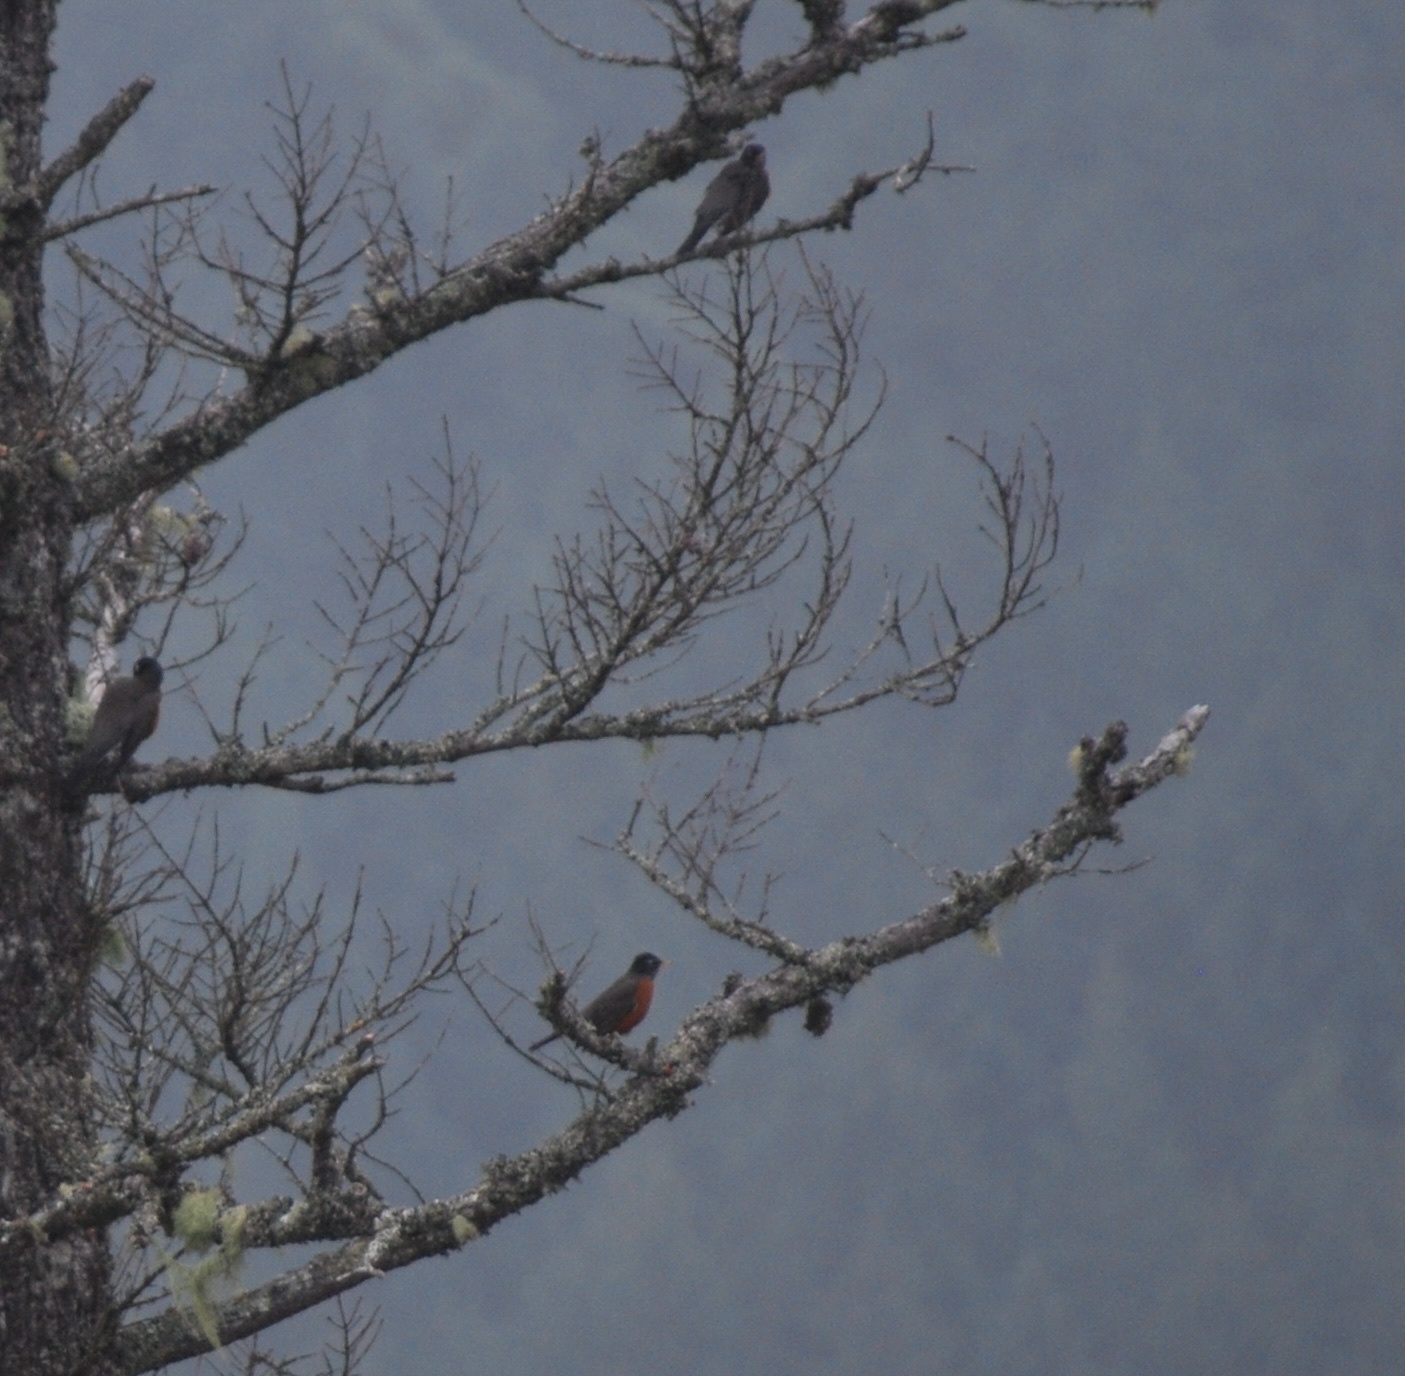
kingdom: Animalia
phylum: Chordata
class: Aves
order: Passeriformes
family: Turdidae
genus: Turdus
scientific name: Turdus migratorius
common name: American robin
